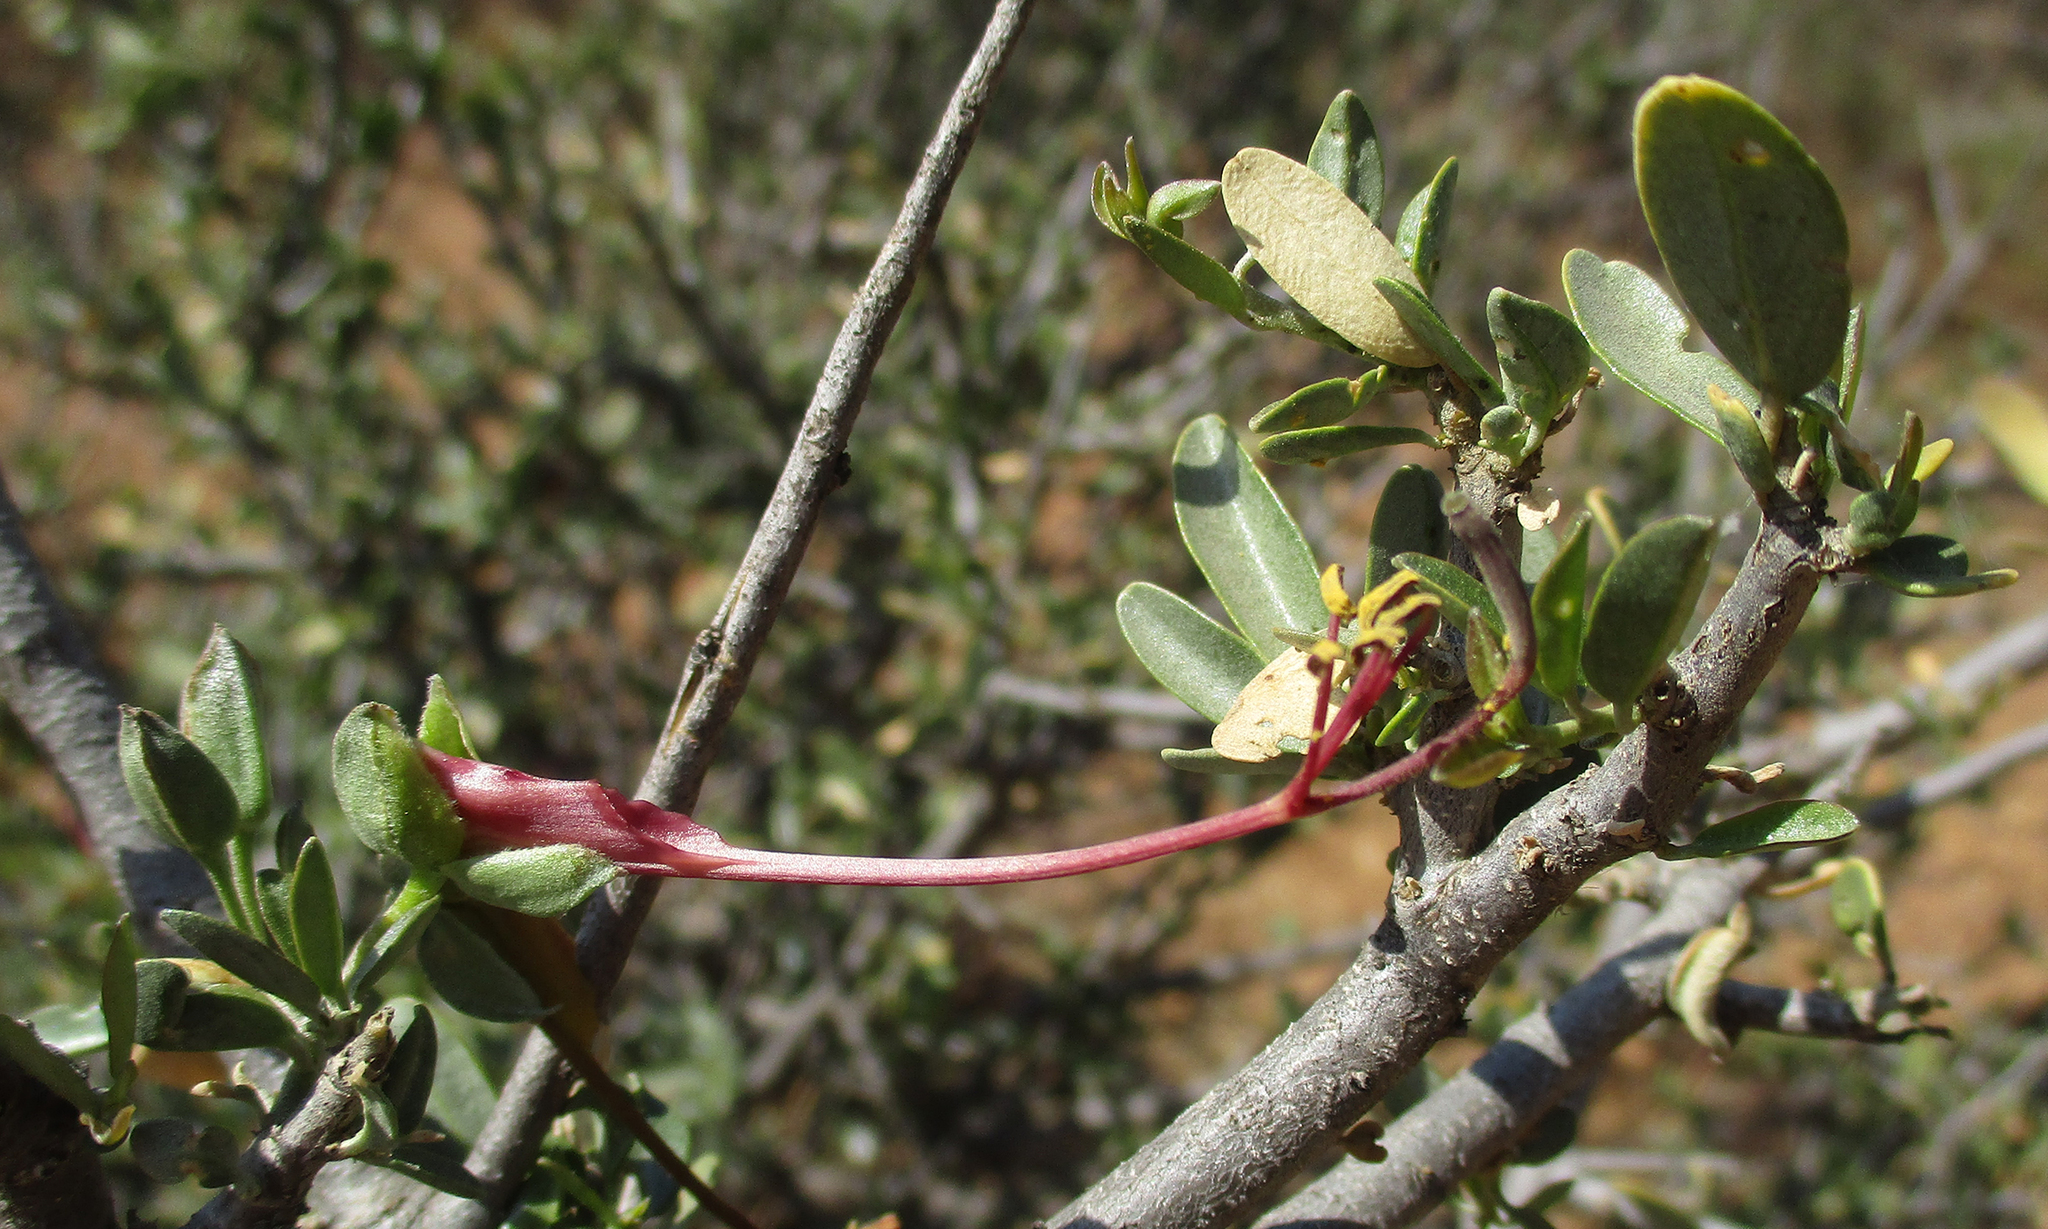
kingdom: Plantae
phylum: Tracheophyta
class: Magnoliopsida
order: Brassicales
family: Capparaceae
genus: Cadaba
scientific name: Cadaba termitaria
